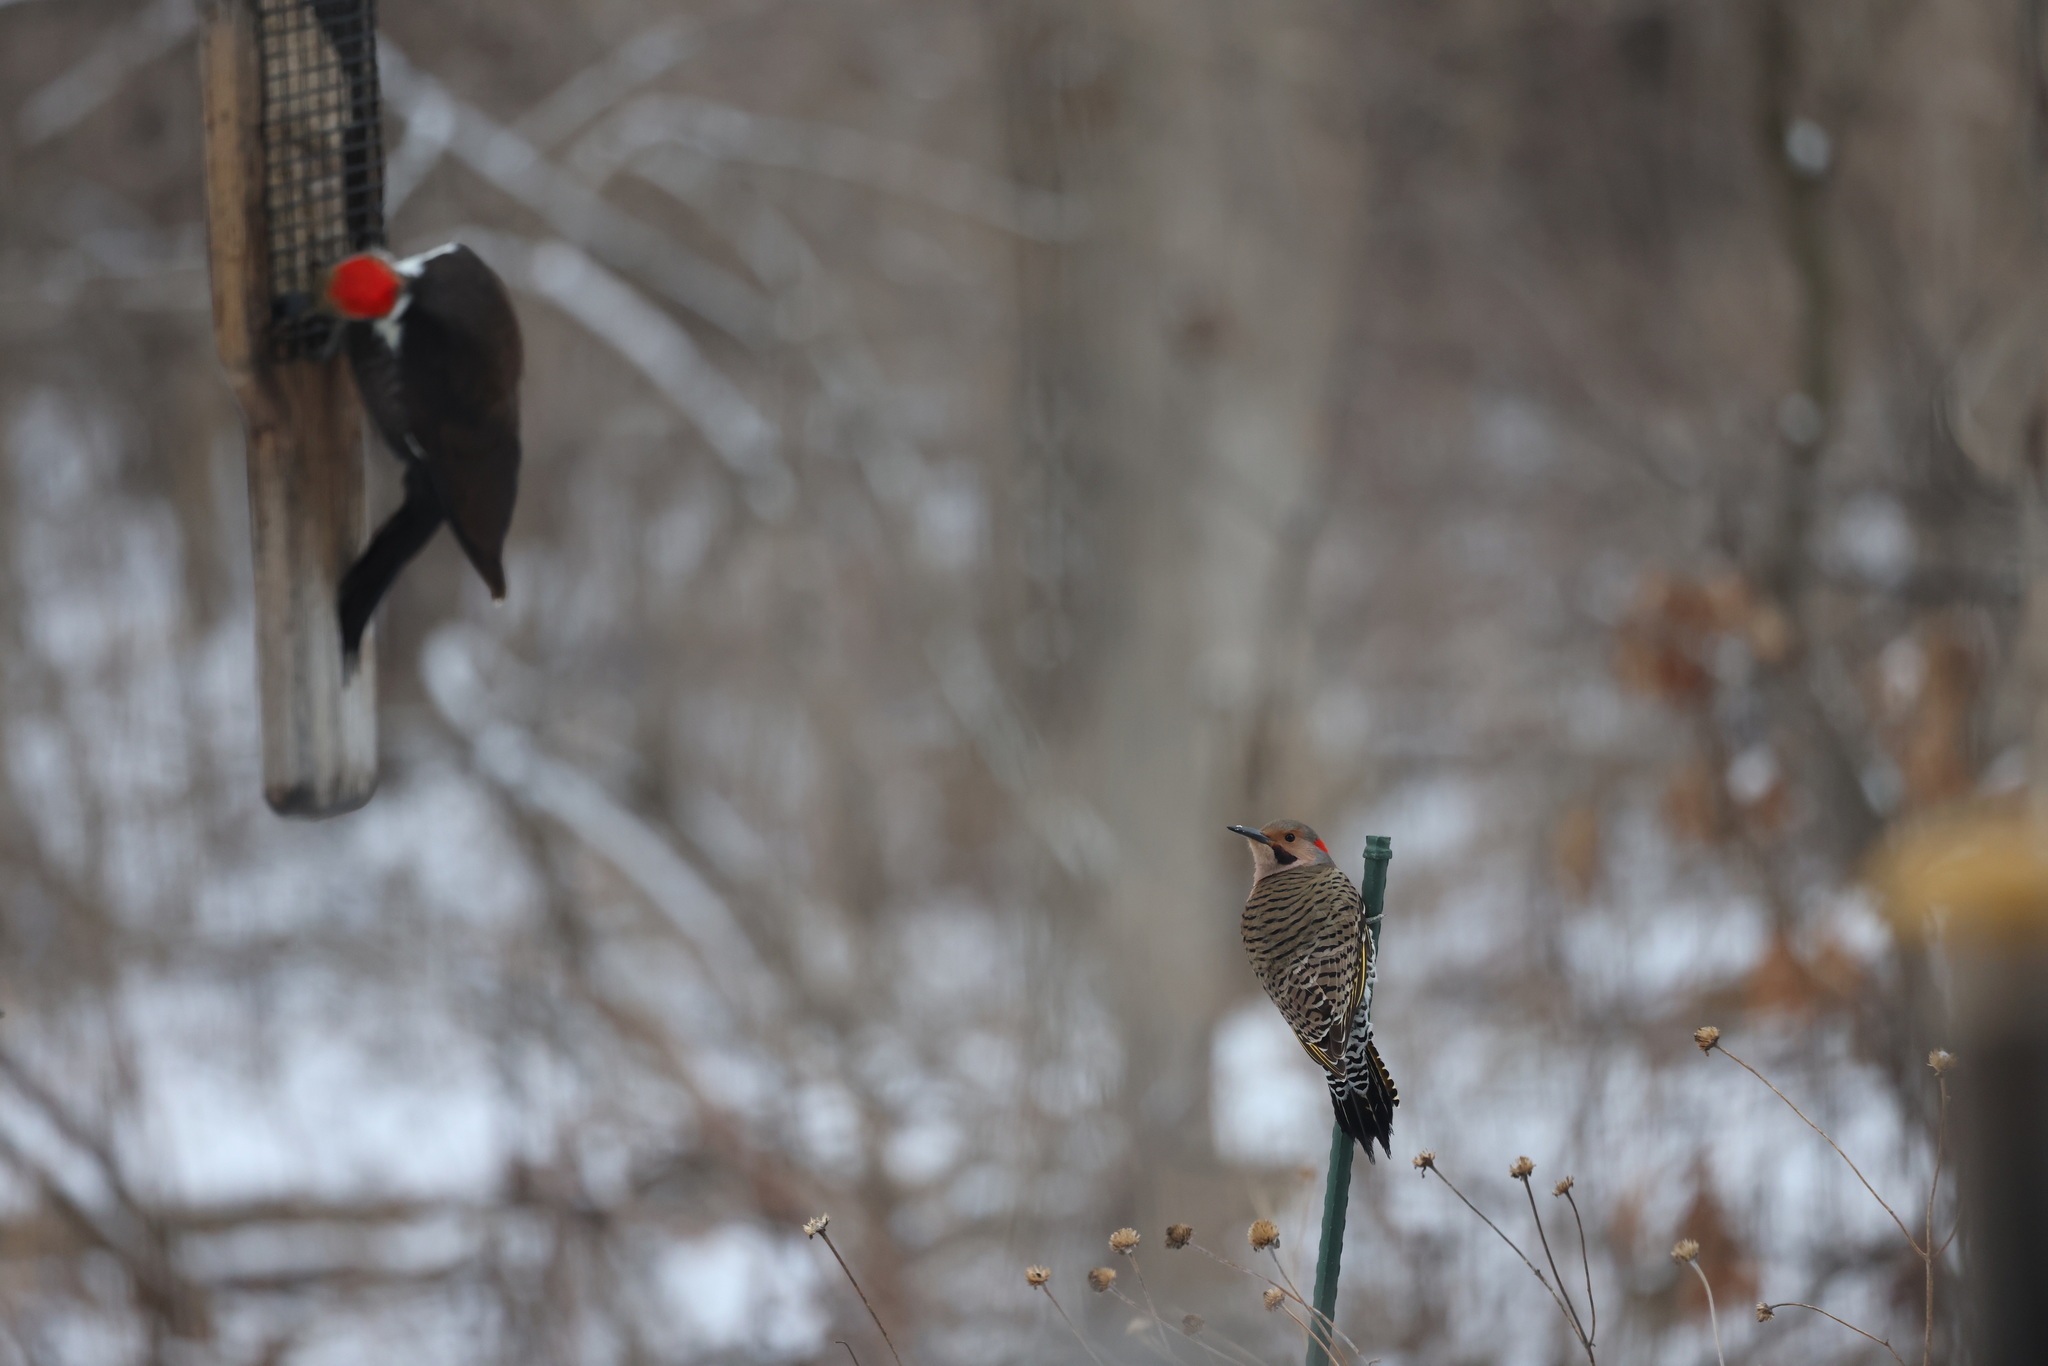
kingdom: Animalia
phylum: Chordata
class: Aves
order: Piciformes
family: Picidae
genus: Colaptes
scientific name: Colaptes auratus
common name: Northern flicker
